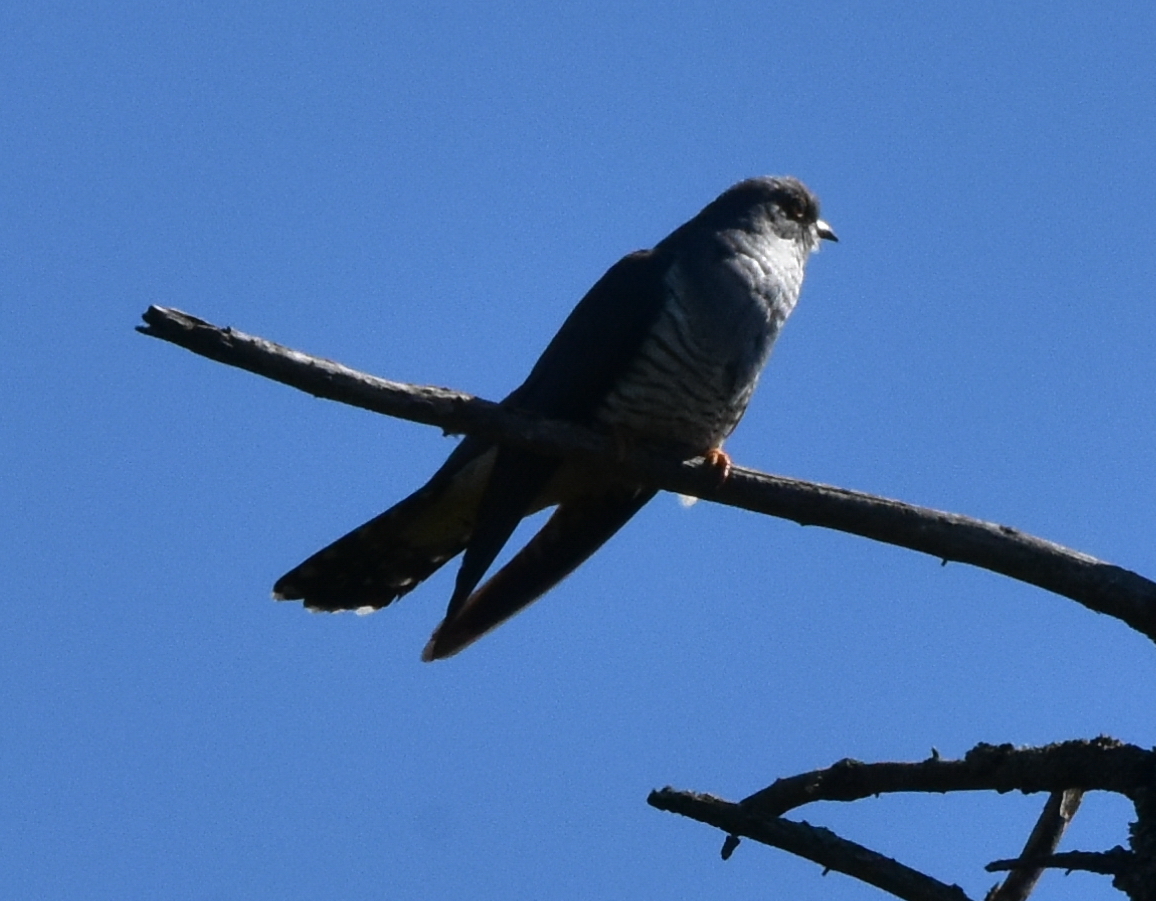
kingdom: Animalia
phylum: Chordata
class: Aves
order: Cuculiformes
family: Cuculidae
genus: Cuculus
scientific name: Cuculus optatus
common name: Oriental cuckoo
